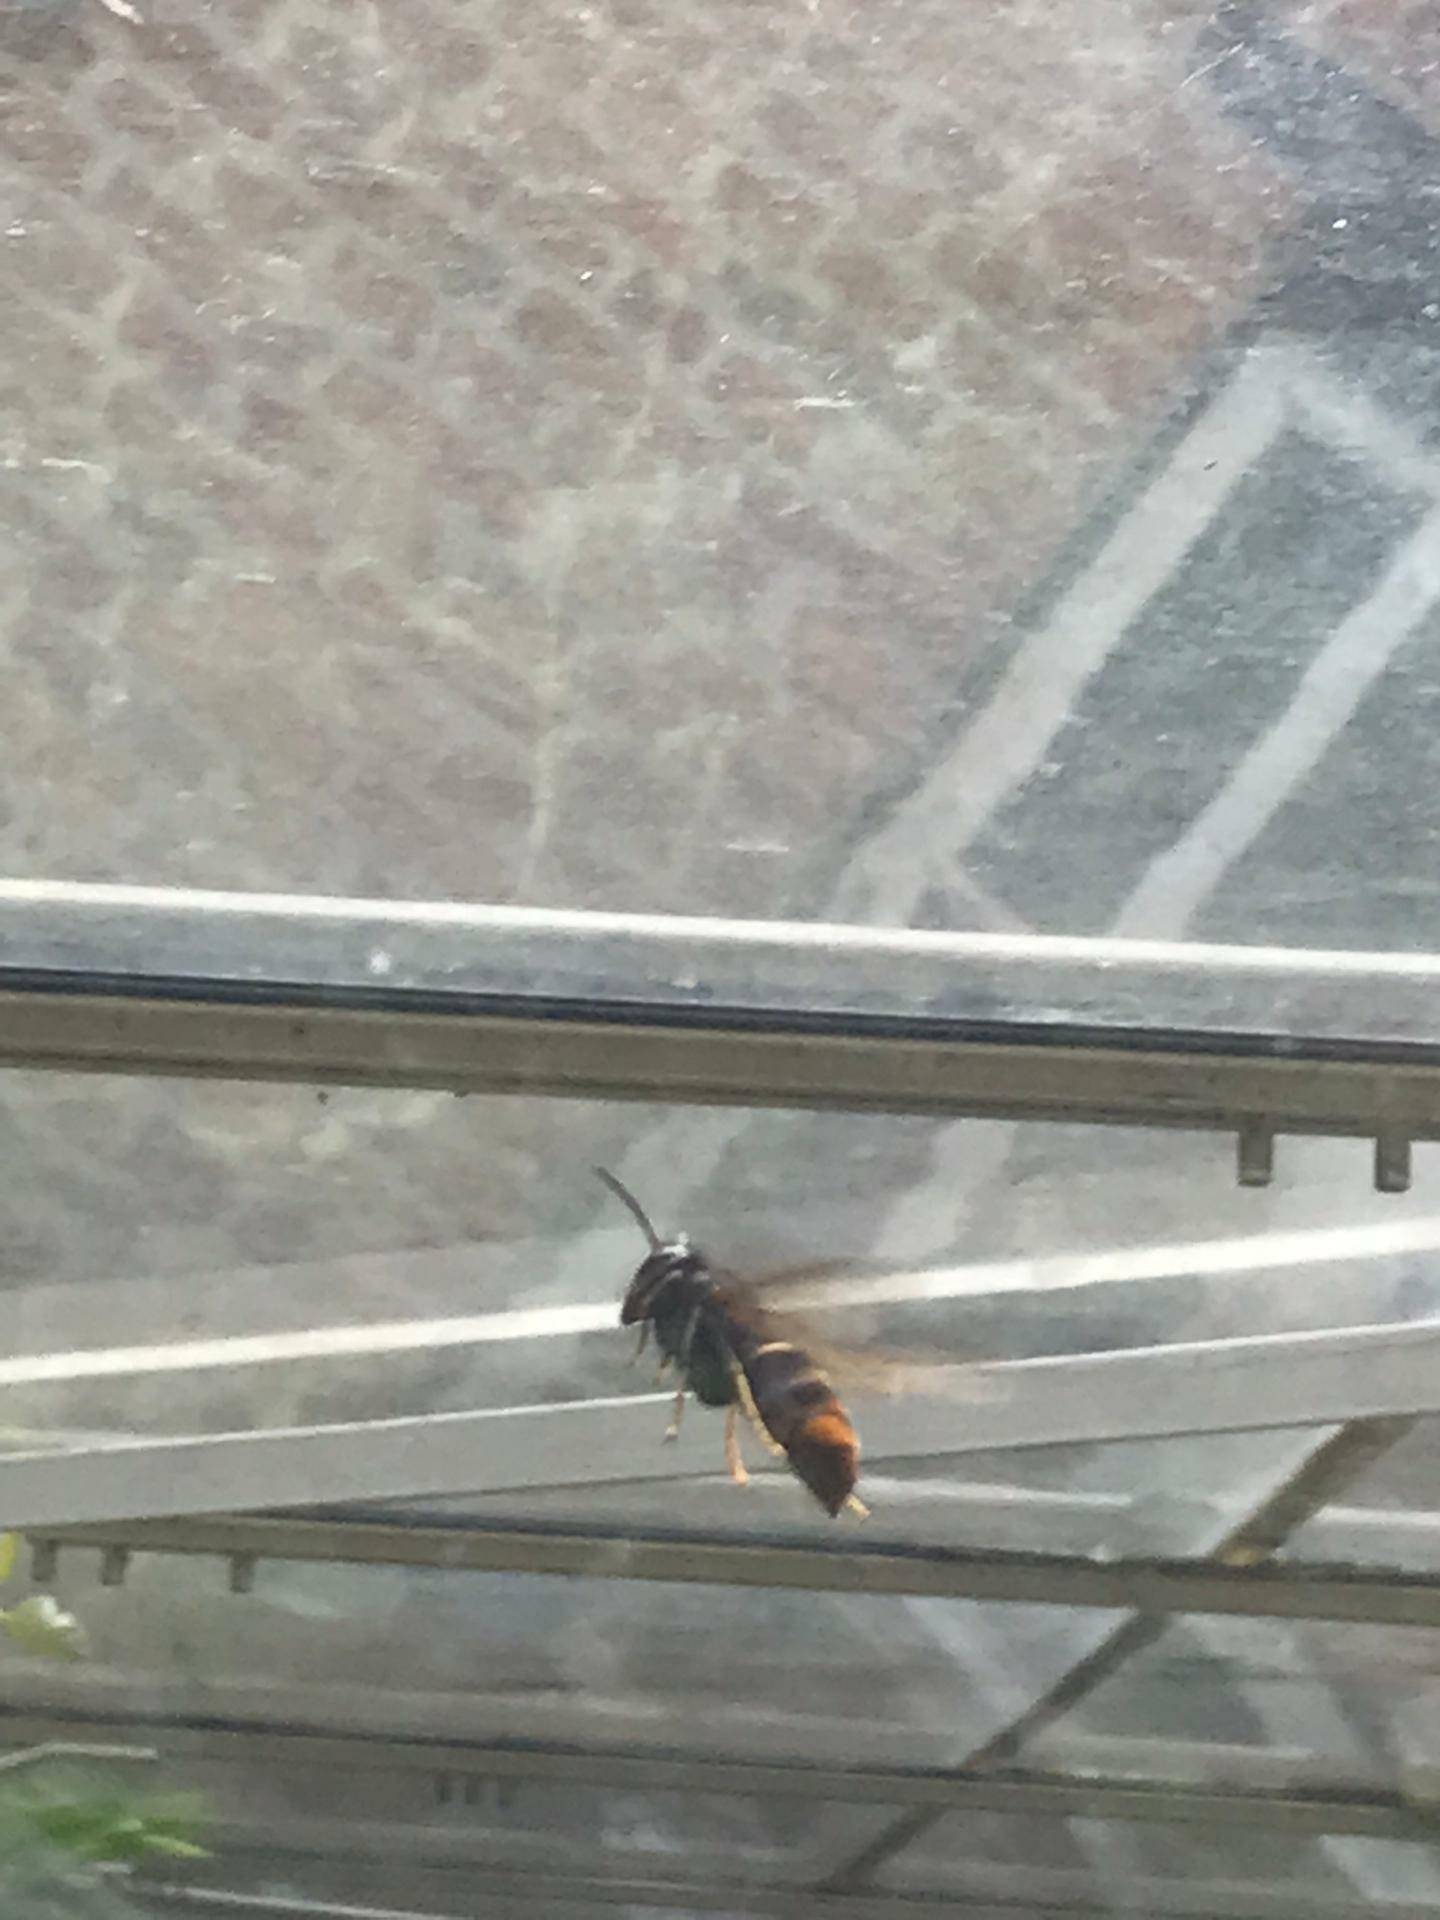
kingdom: Animalia
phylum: Arthropoda
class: Insecta
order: Hymenoptera
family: Vespidae
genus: Vespa
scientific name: Vespa velutina
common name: Asian hornet
